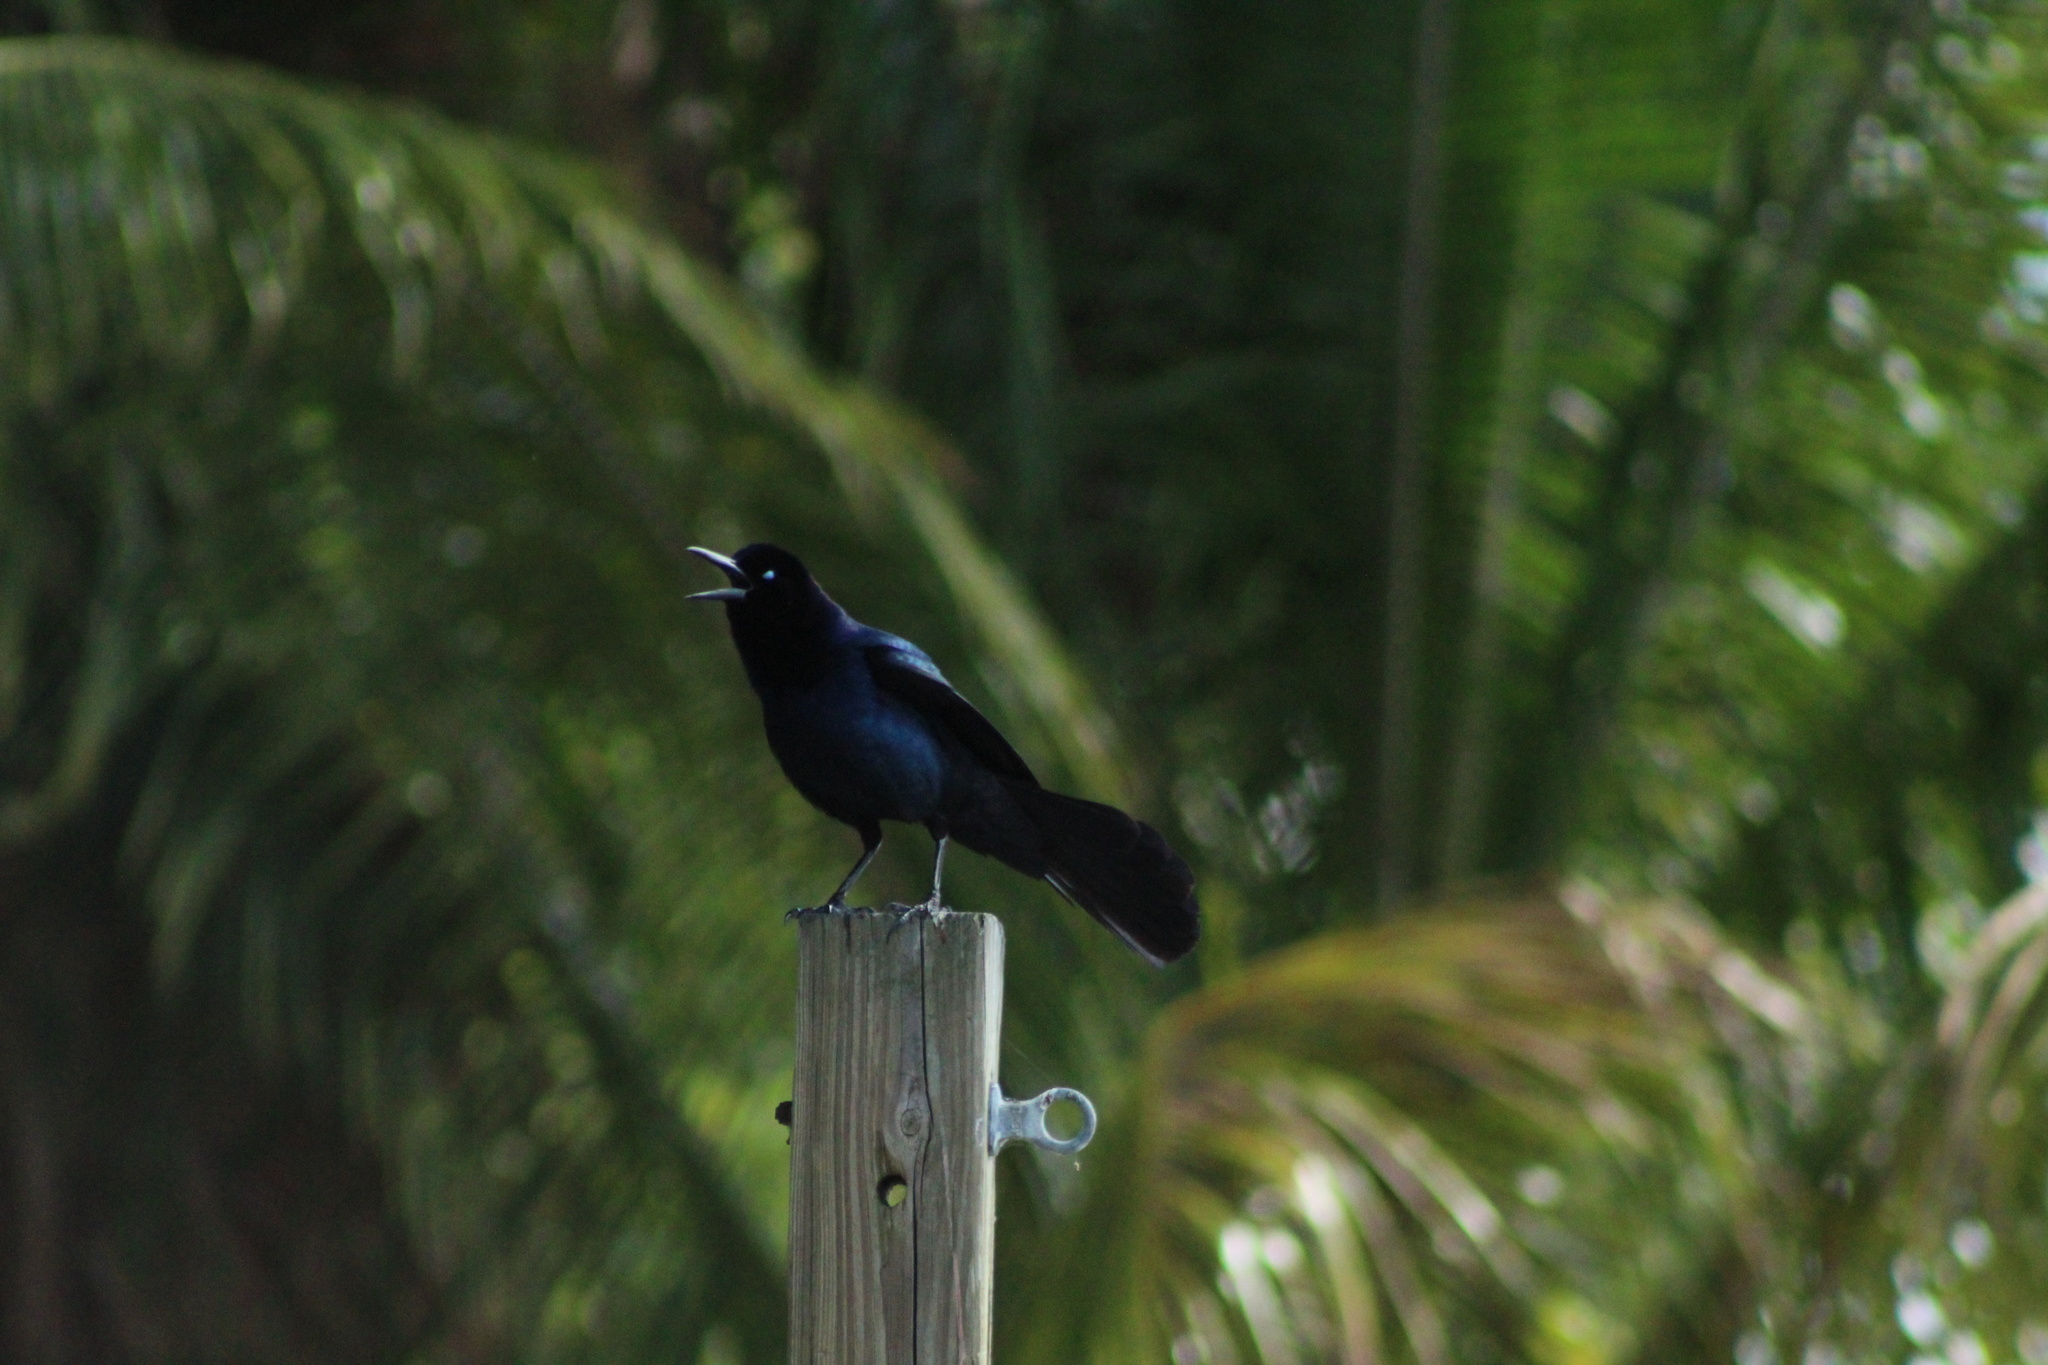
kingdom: Animalia
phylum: Chordata
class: Aves
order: Passeriformes
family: Icteridae
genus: Quiscalus
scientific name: Quiscalus major
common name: Boat-tailed grackle
